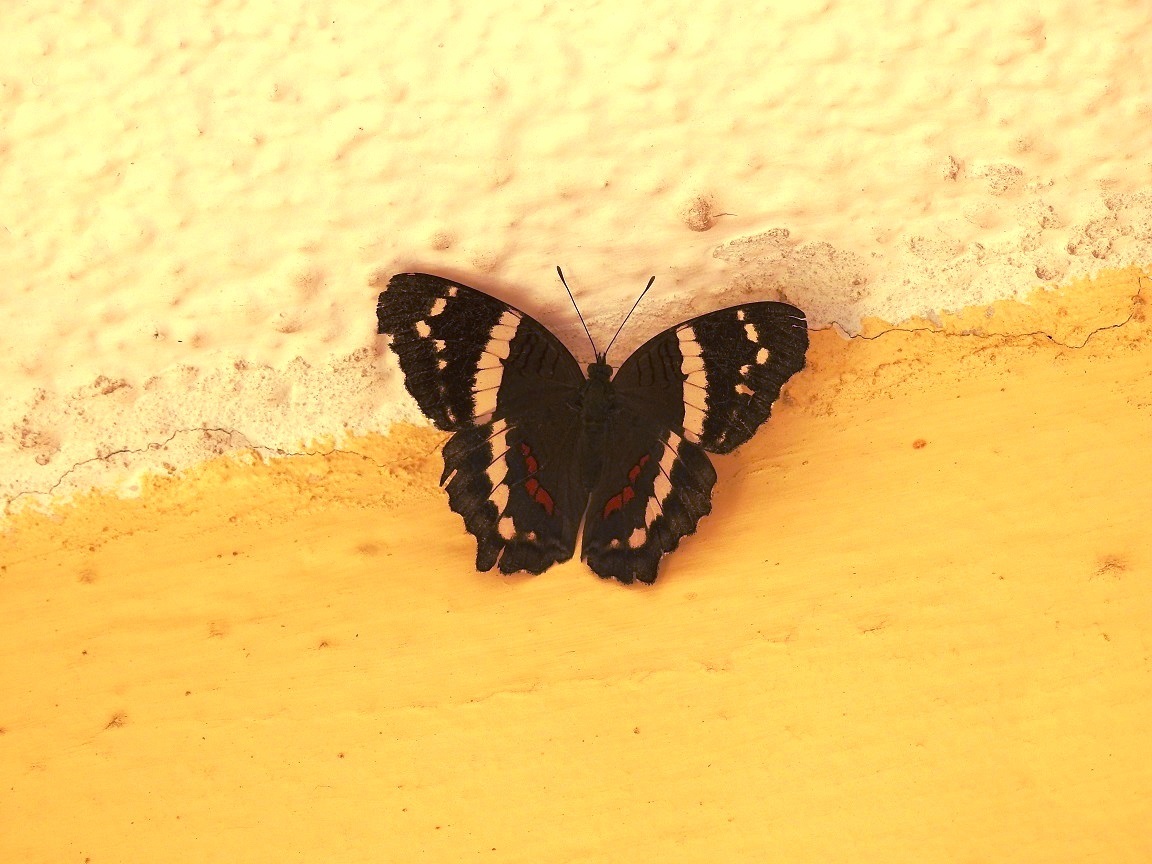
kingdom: Animalia
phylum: Arthropoda
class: Insecta
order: Lepidoptera
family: Nymphalidae
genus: Anartia
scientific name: Anartia fatima
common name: Banded peacock
